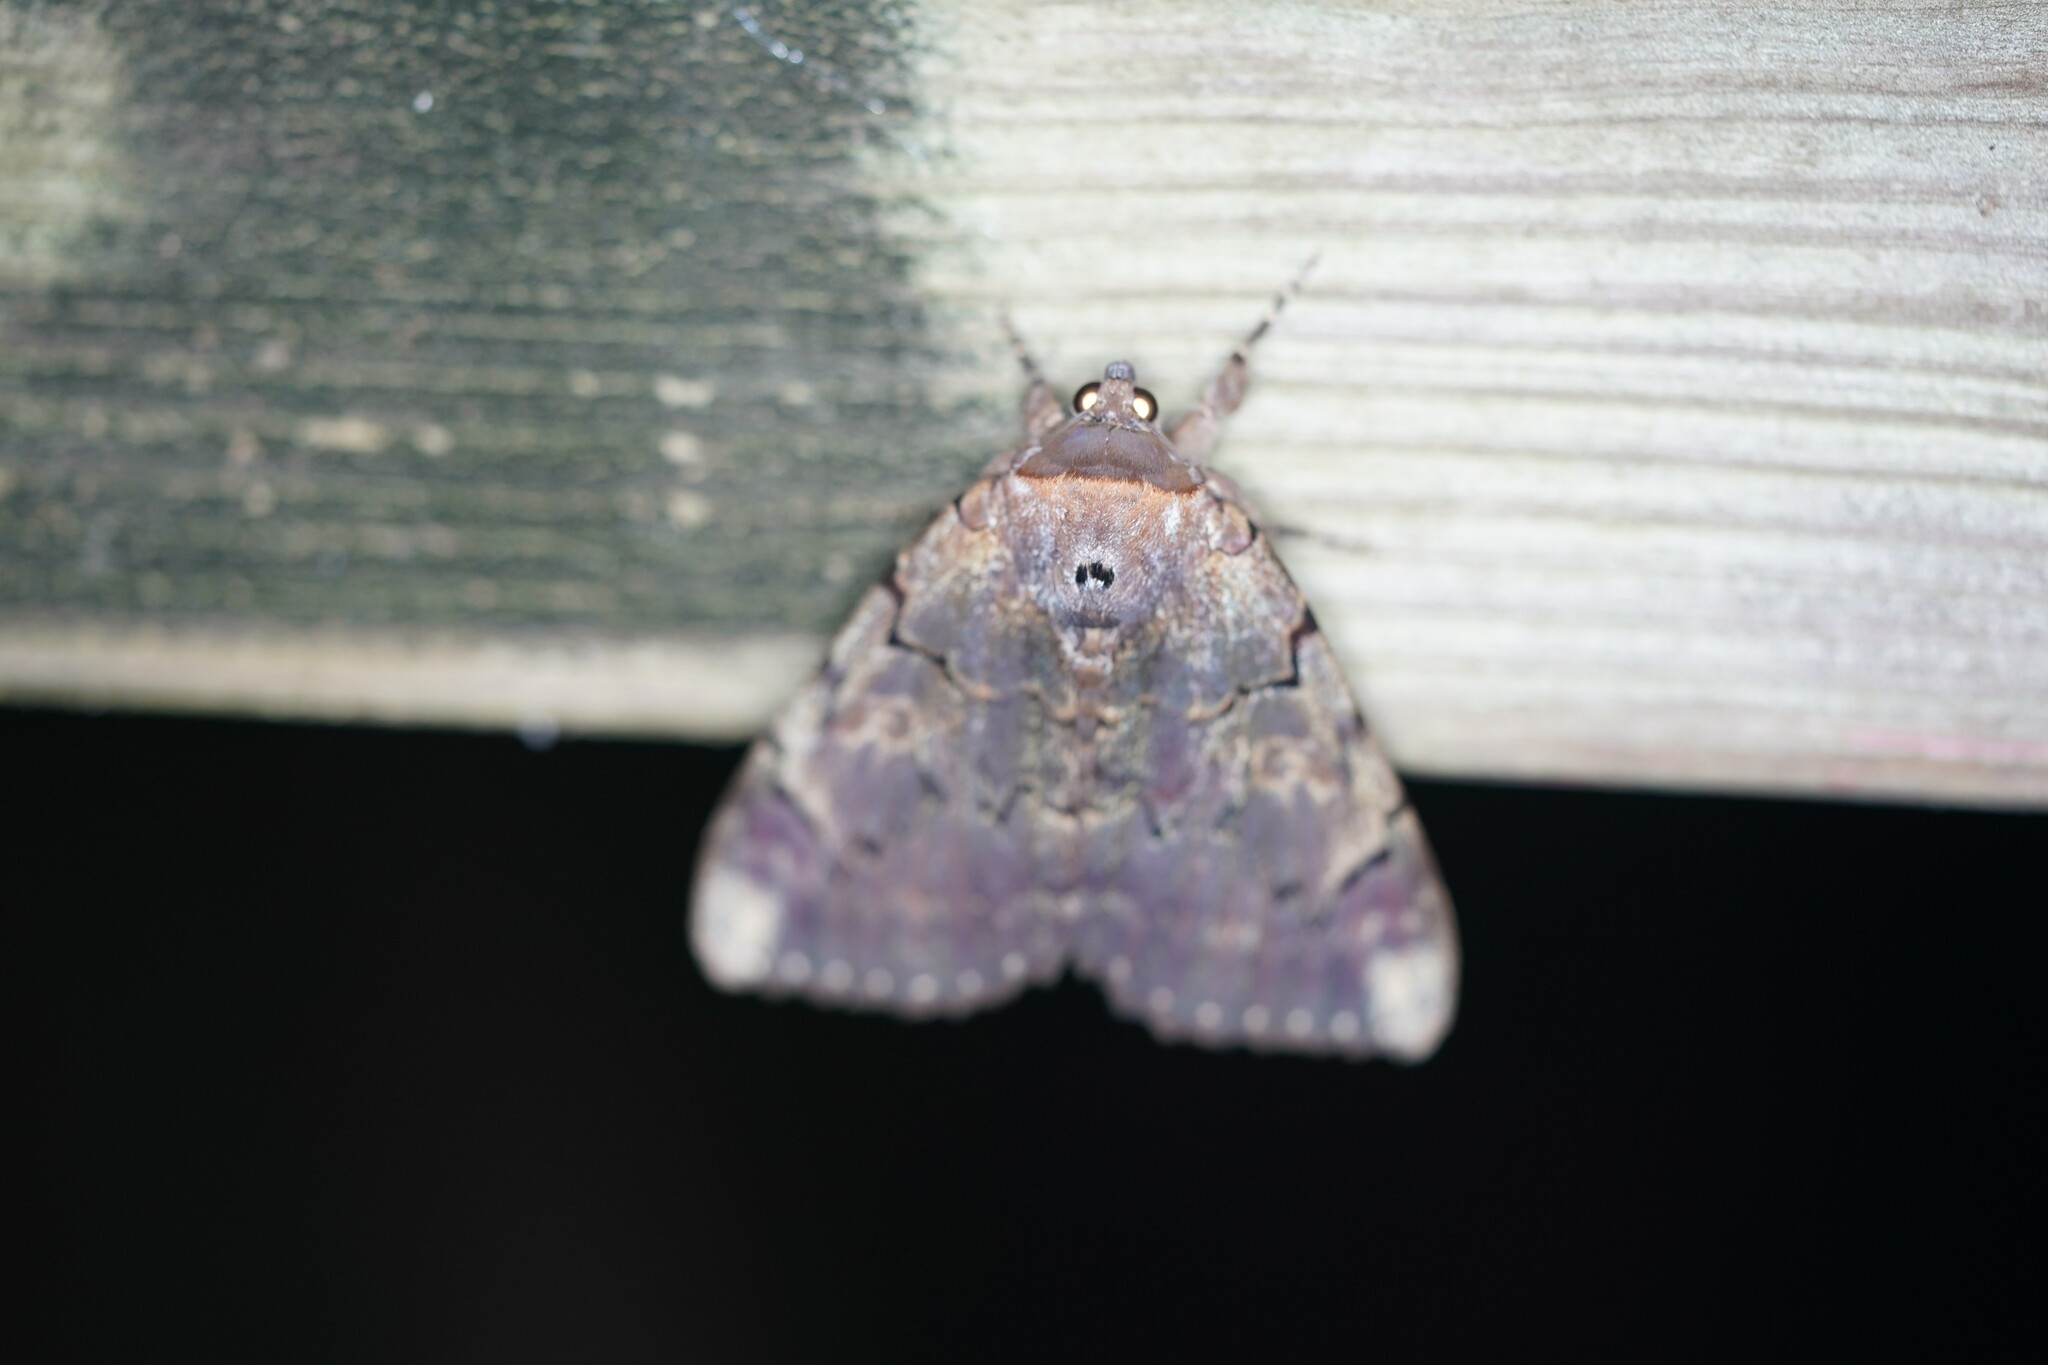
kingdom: Animalia
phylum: Arthropoda
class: Insecta
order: Lepidoptera
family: Erebidae
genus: Catocala
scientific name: Catocala carissima
